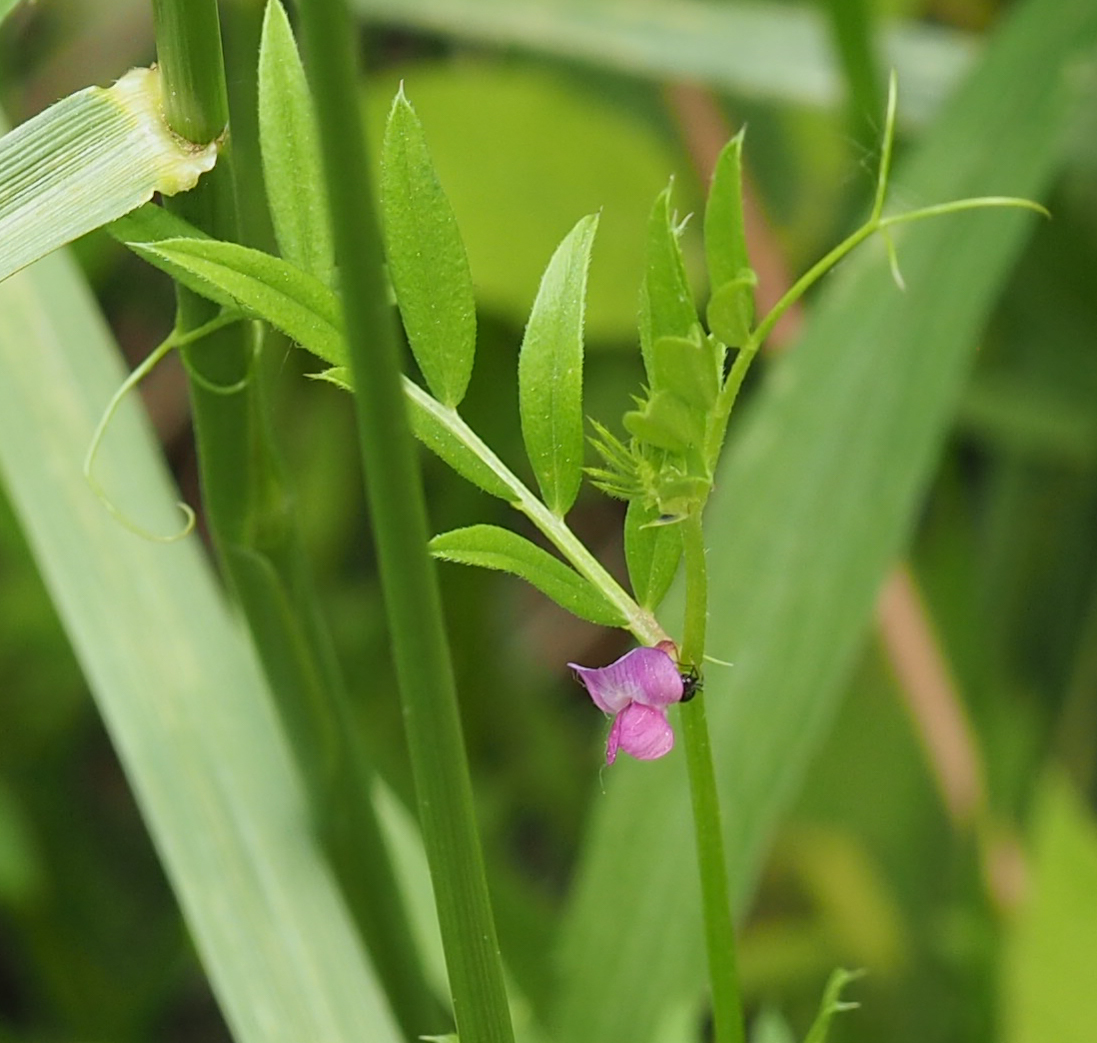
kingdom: Plantae
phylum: Tracheophyta
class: Magnoliopsida
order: Fabales
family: Fabaceae
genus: Vicia
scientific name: Vicia sativa
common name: Garden vetch
